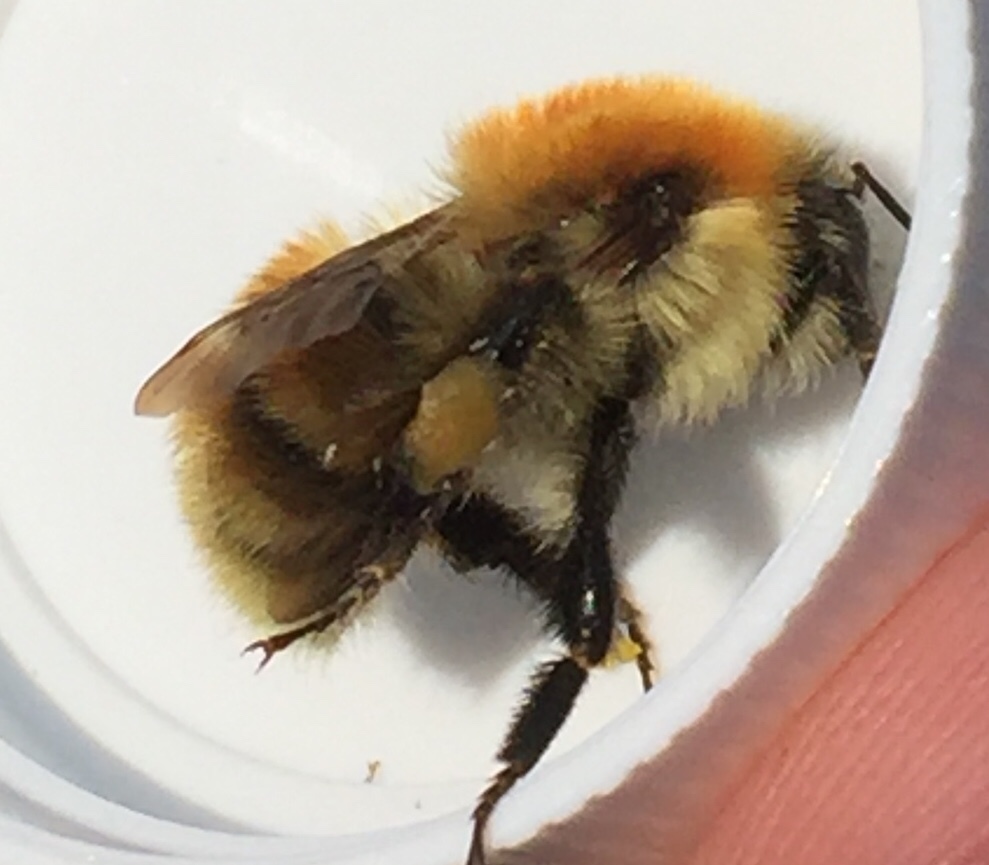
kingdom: Animalia
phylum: Arthropoda
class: Insecta
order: Hymenoptera
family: Apidae
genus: Bombus
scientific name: Bombus pascuorum
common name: Common carder bee
